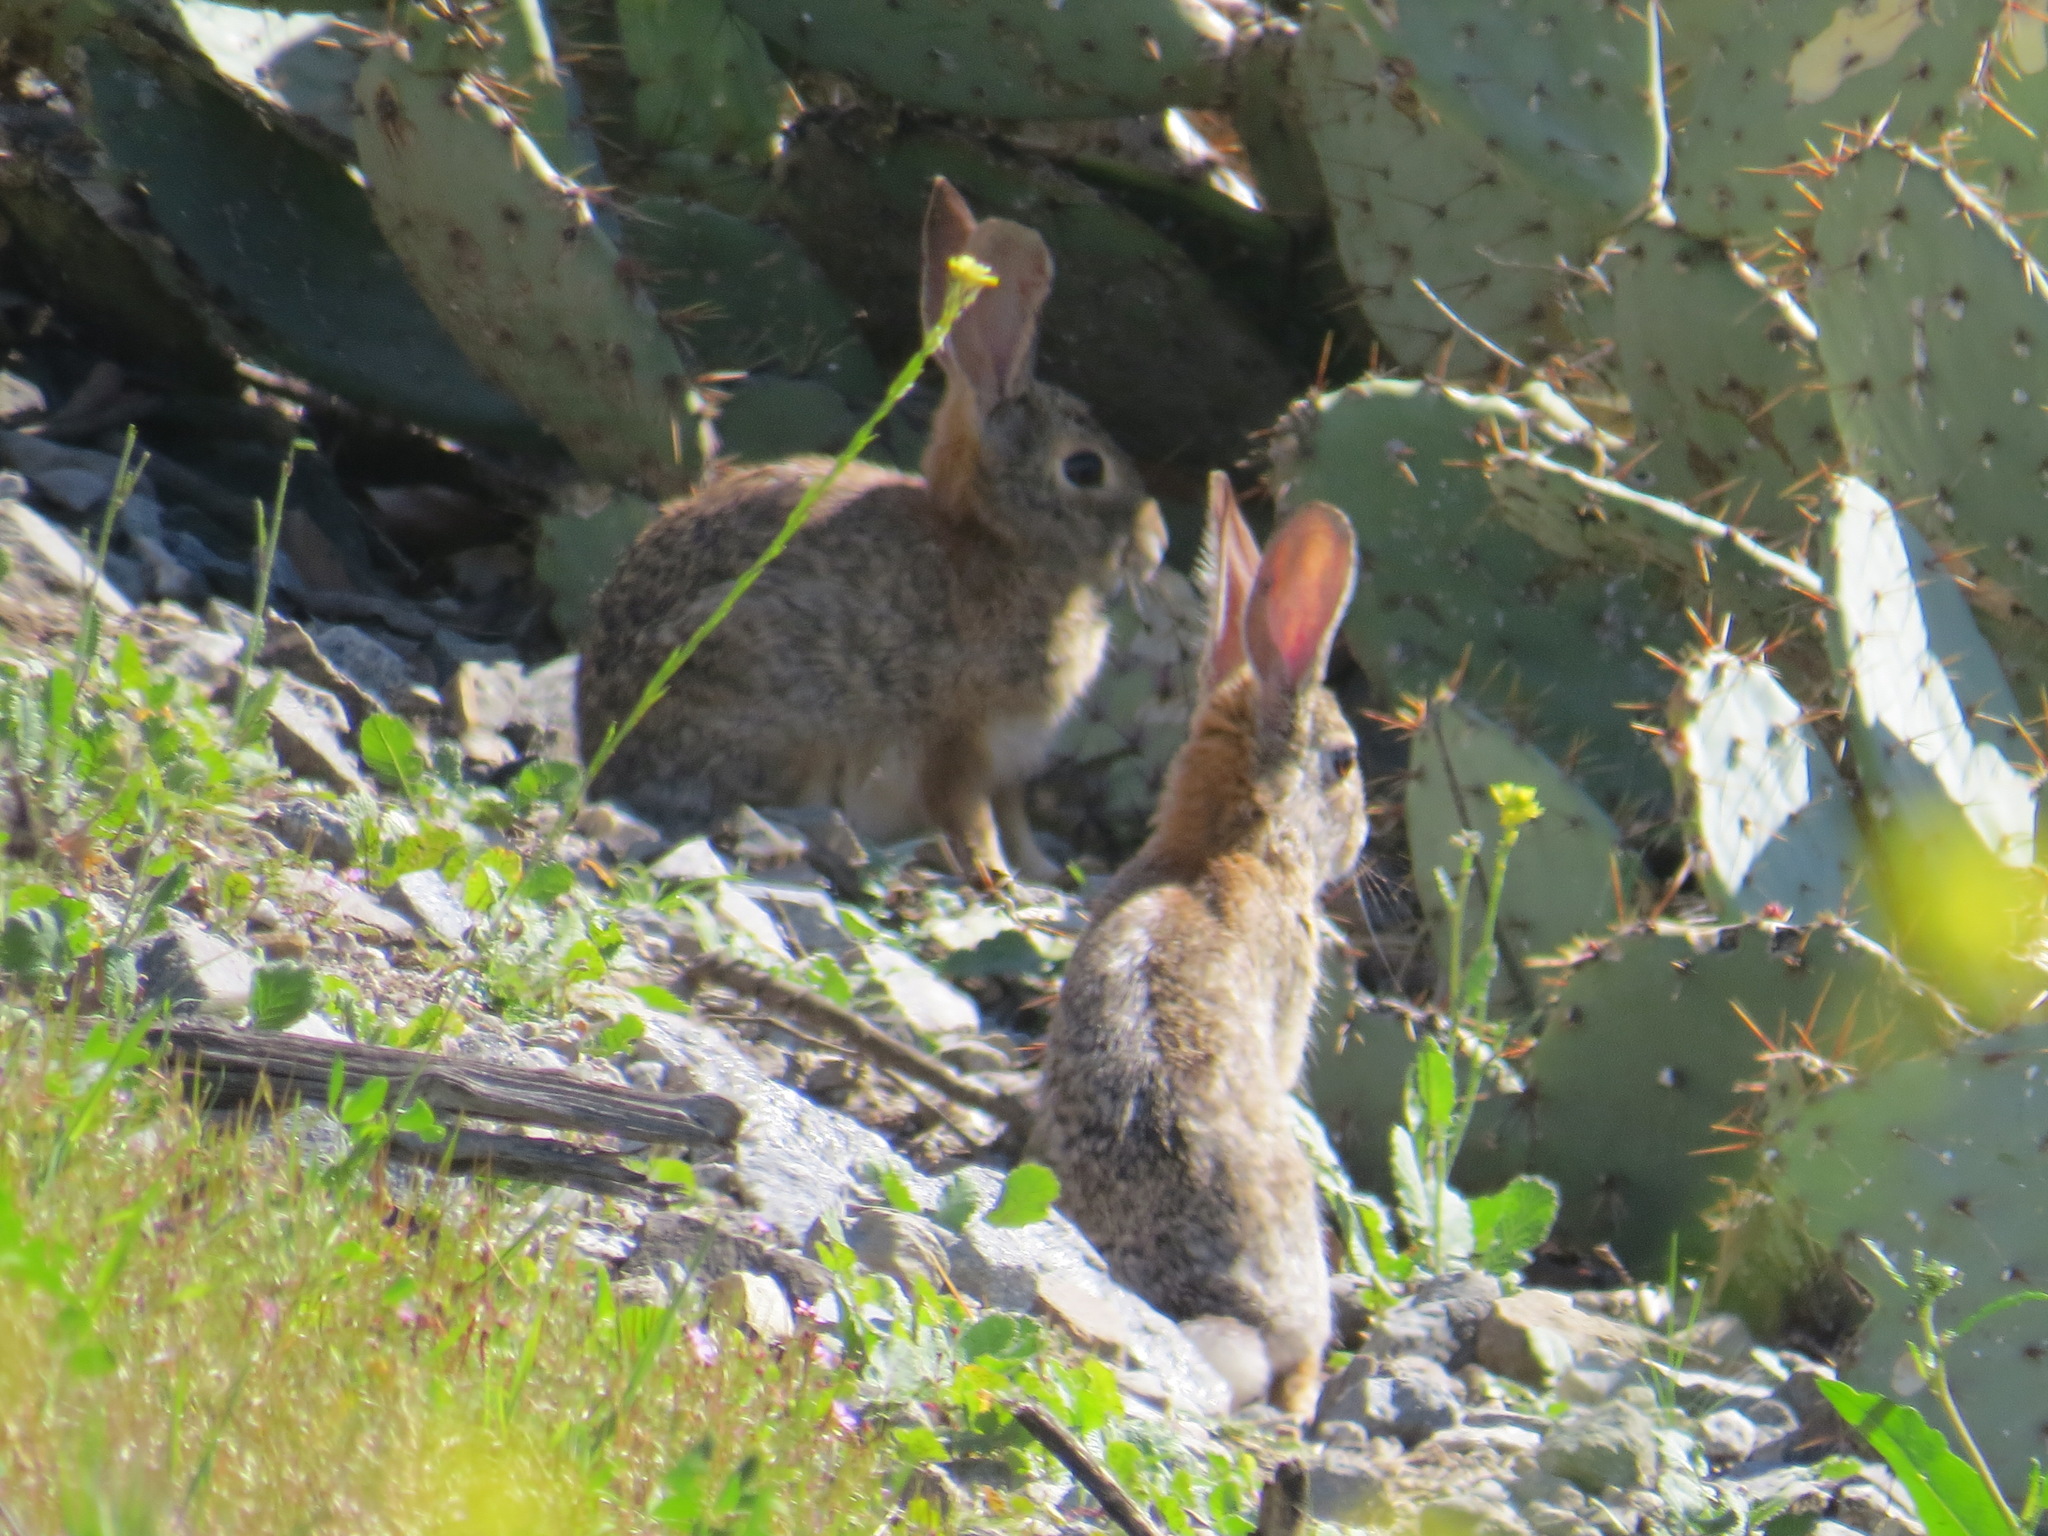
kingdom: Animalia
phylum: Chordata
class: Mammalia
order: Lagomorpha
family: Leporidae
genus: Sylvilagus
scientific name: Sylvilagus audubonii
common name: Desert cottontail
